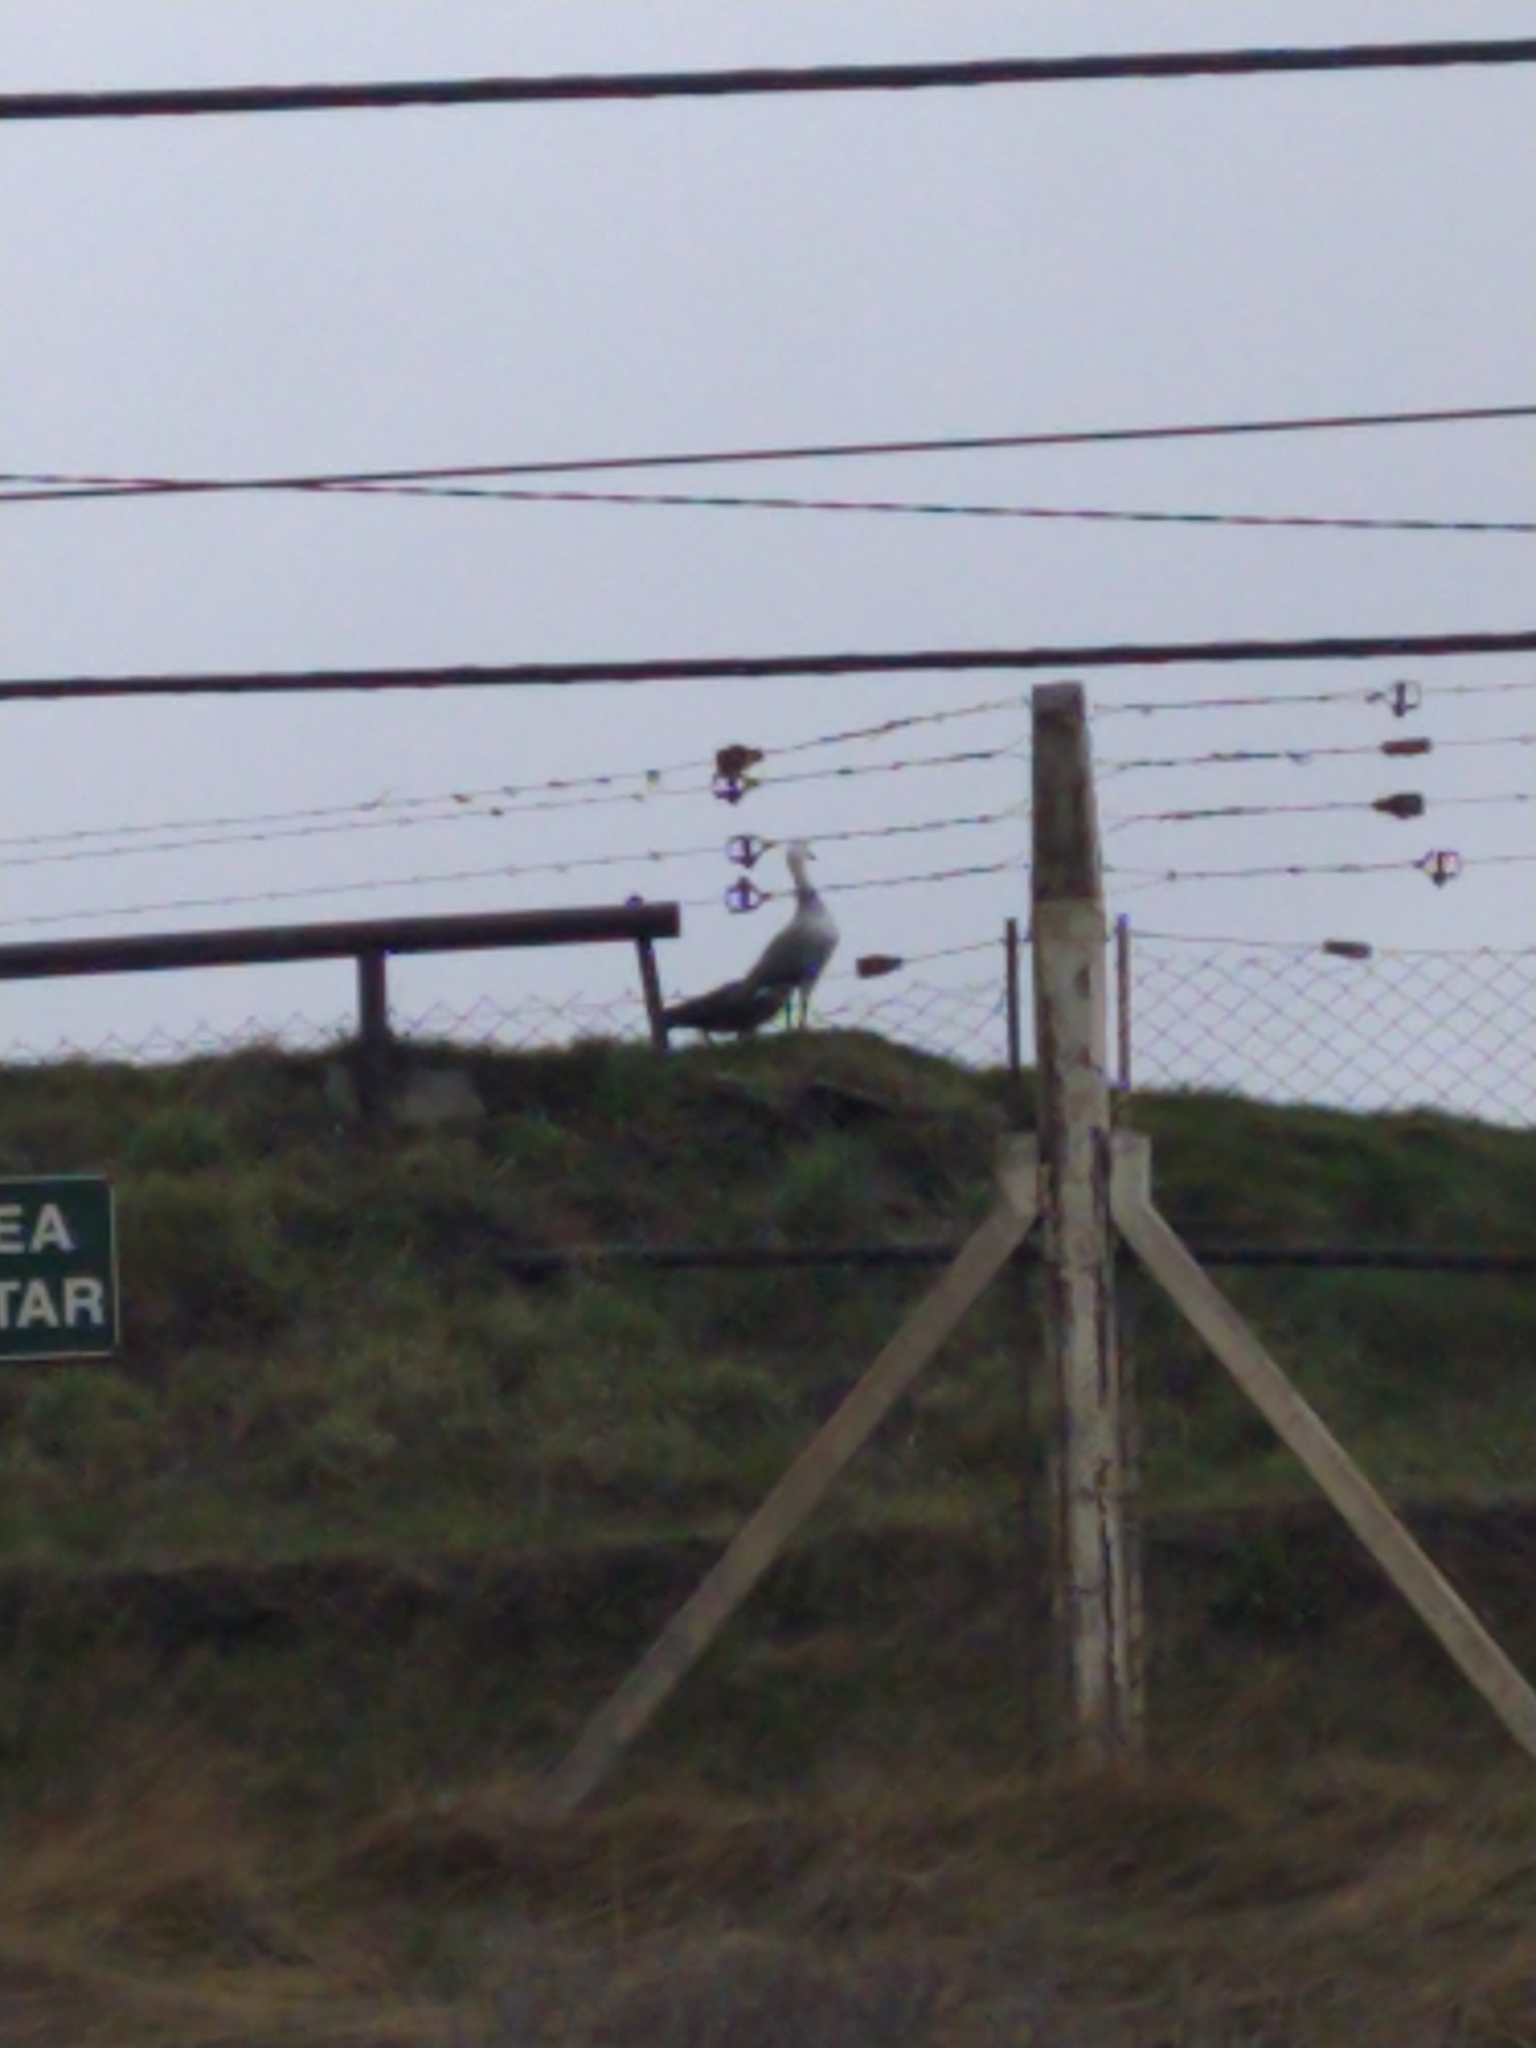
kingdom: Animalia
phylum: Chordata
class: Aves
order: Anseriformes
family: Anatidae
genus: Chloephaga
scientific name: Chloephaga picta
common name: Upland goose
